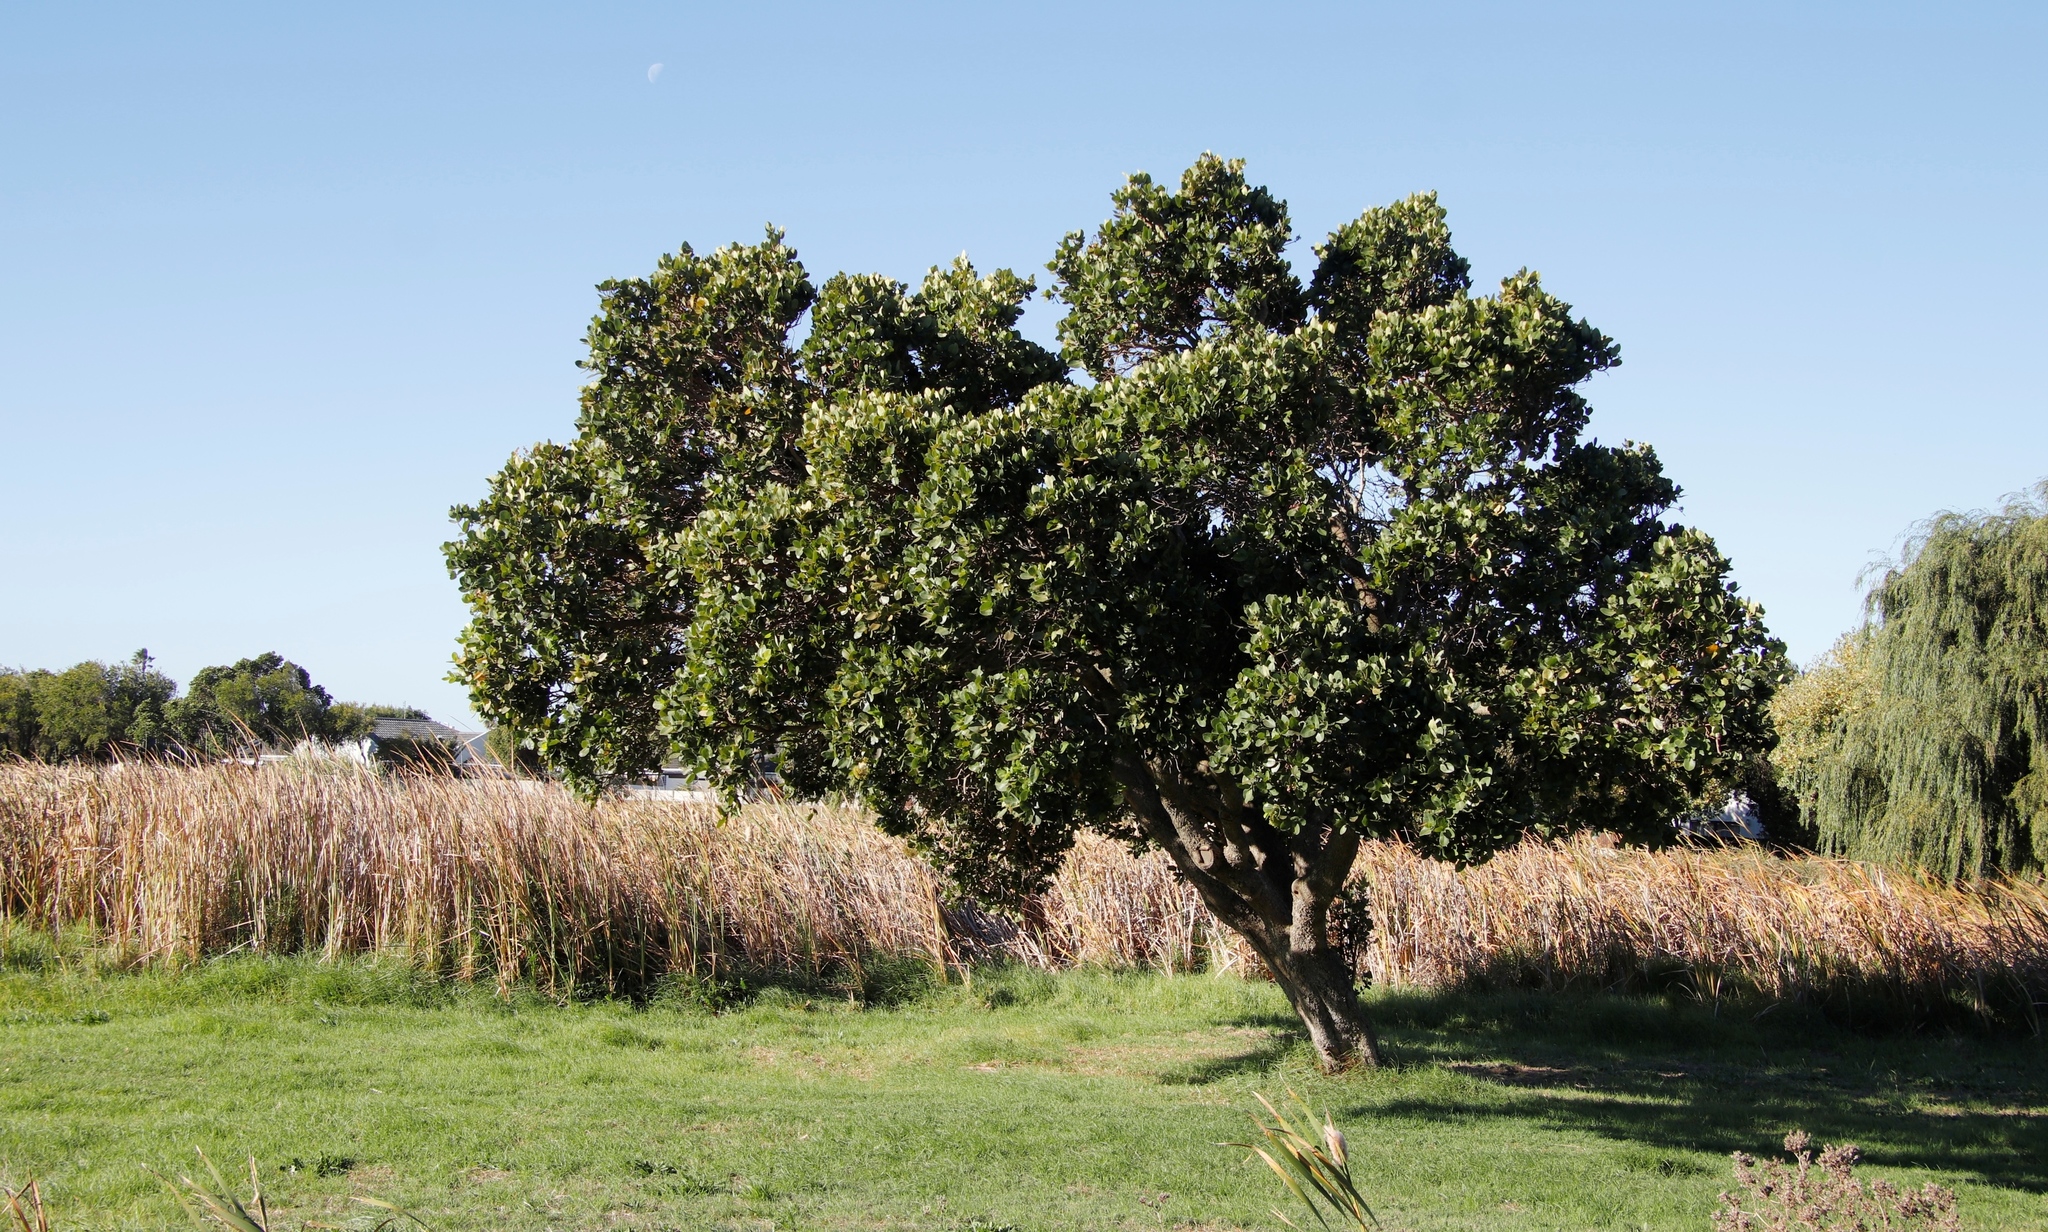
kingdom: Plantae
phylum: Tracheophyta
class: Magnoliopsida
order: Myrtales
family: Myrtaceae
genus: Syzygium
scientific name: Syzygium cordatum
